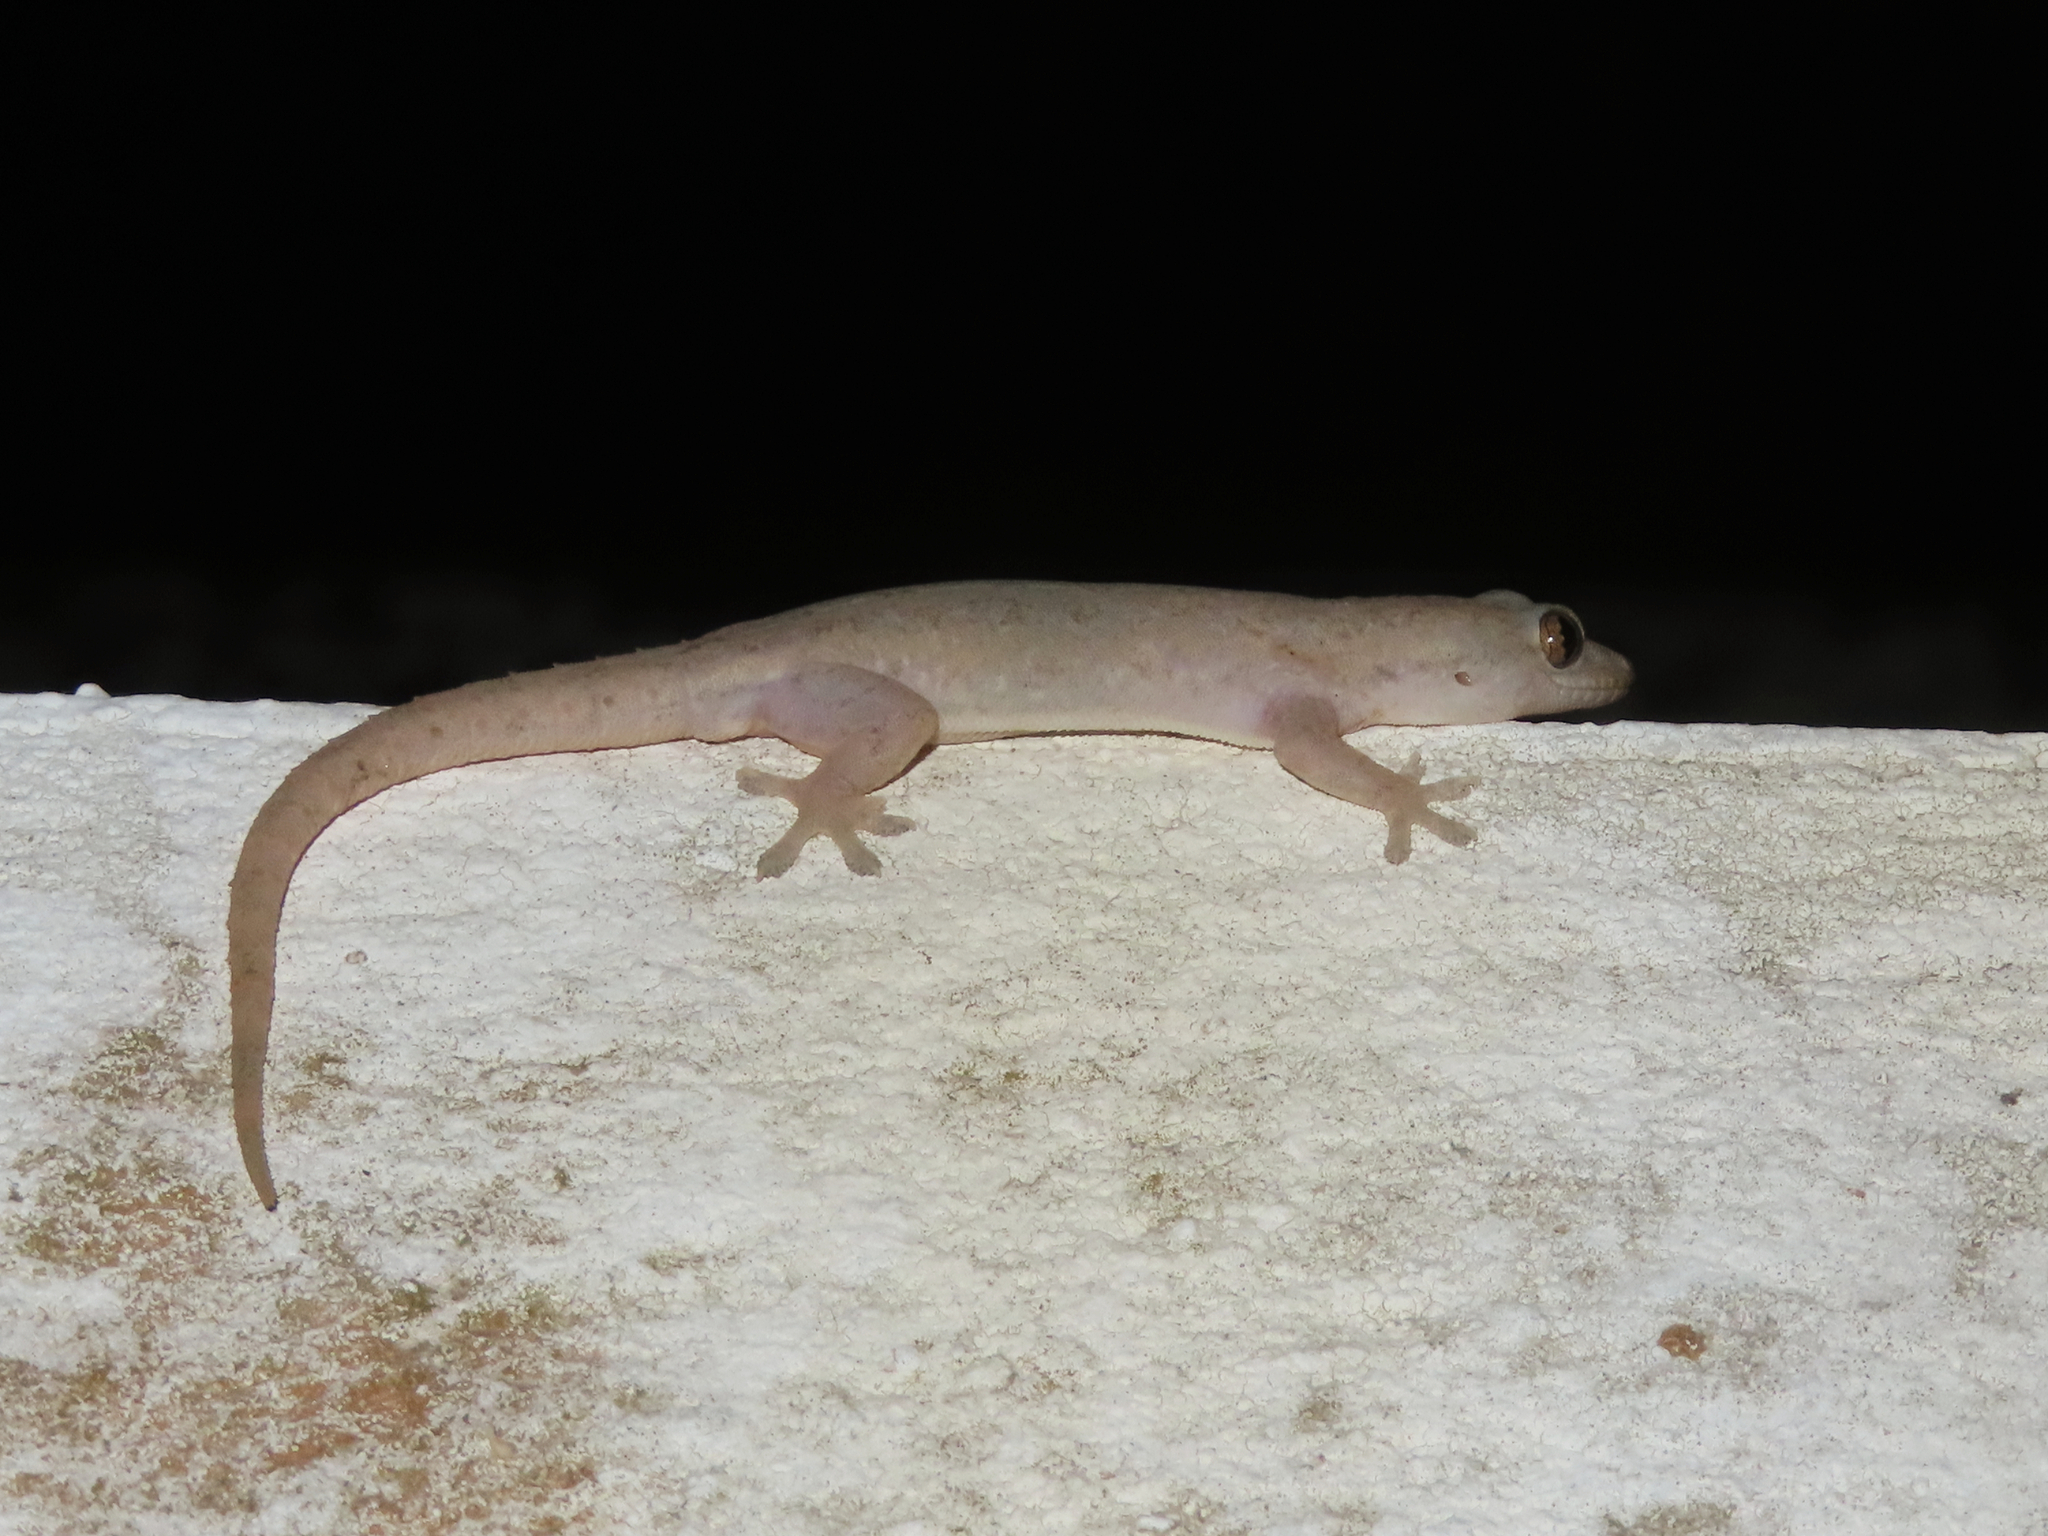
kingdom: Animalia
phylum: Chordata
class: Squamata
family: Gekkonidae
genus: Hemidactylus
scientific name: Hemidactylus frenatus
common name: Common house gecko
